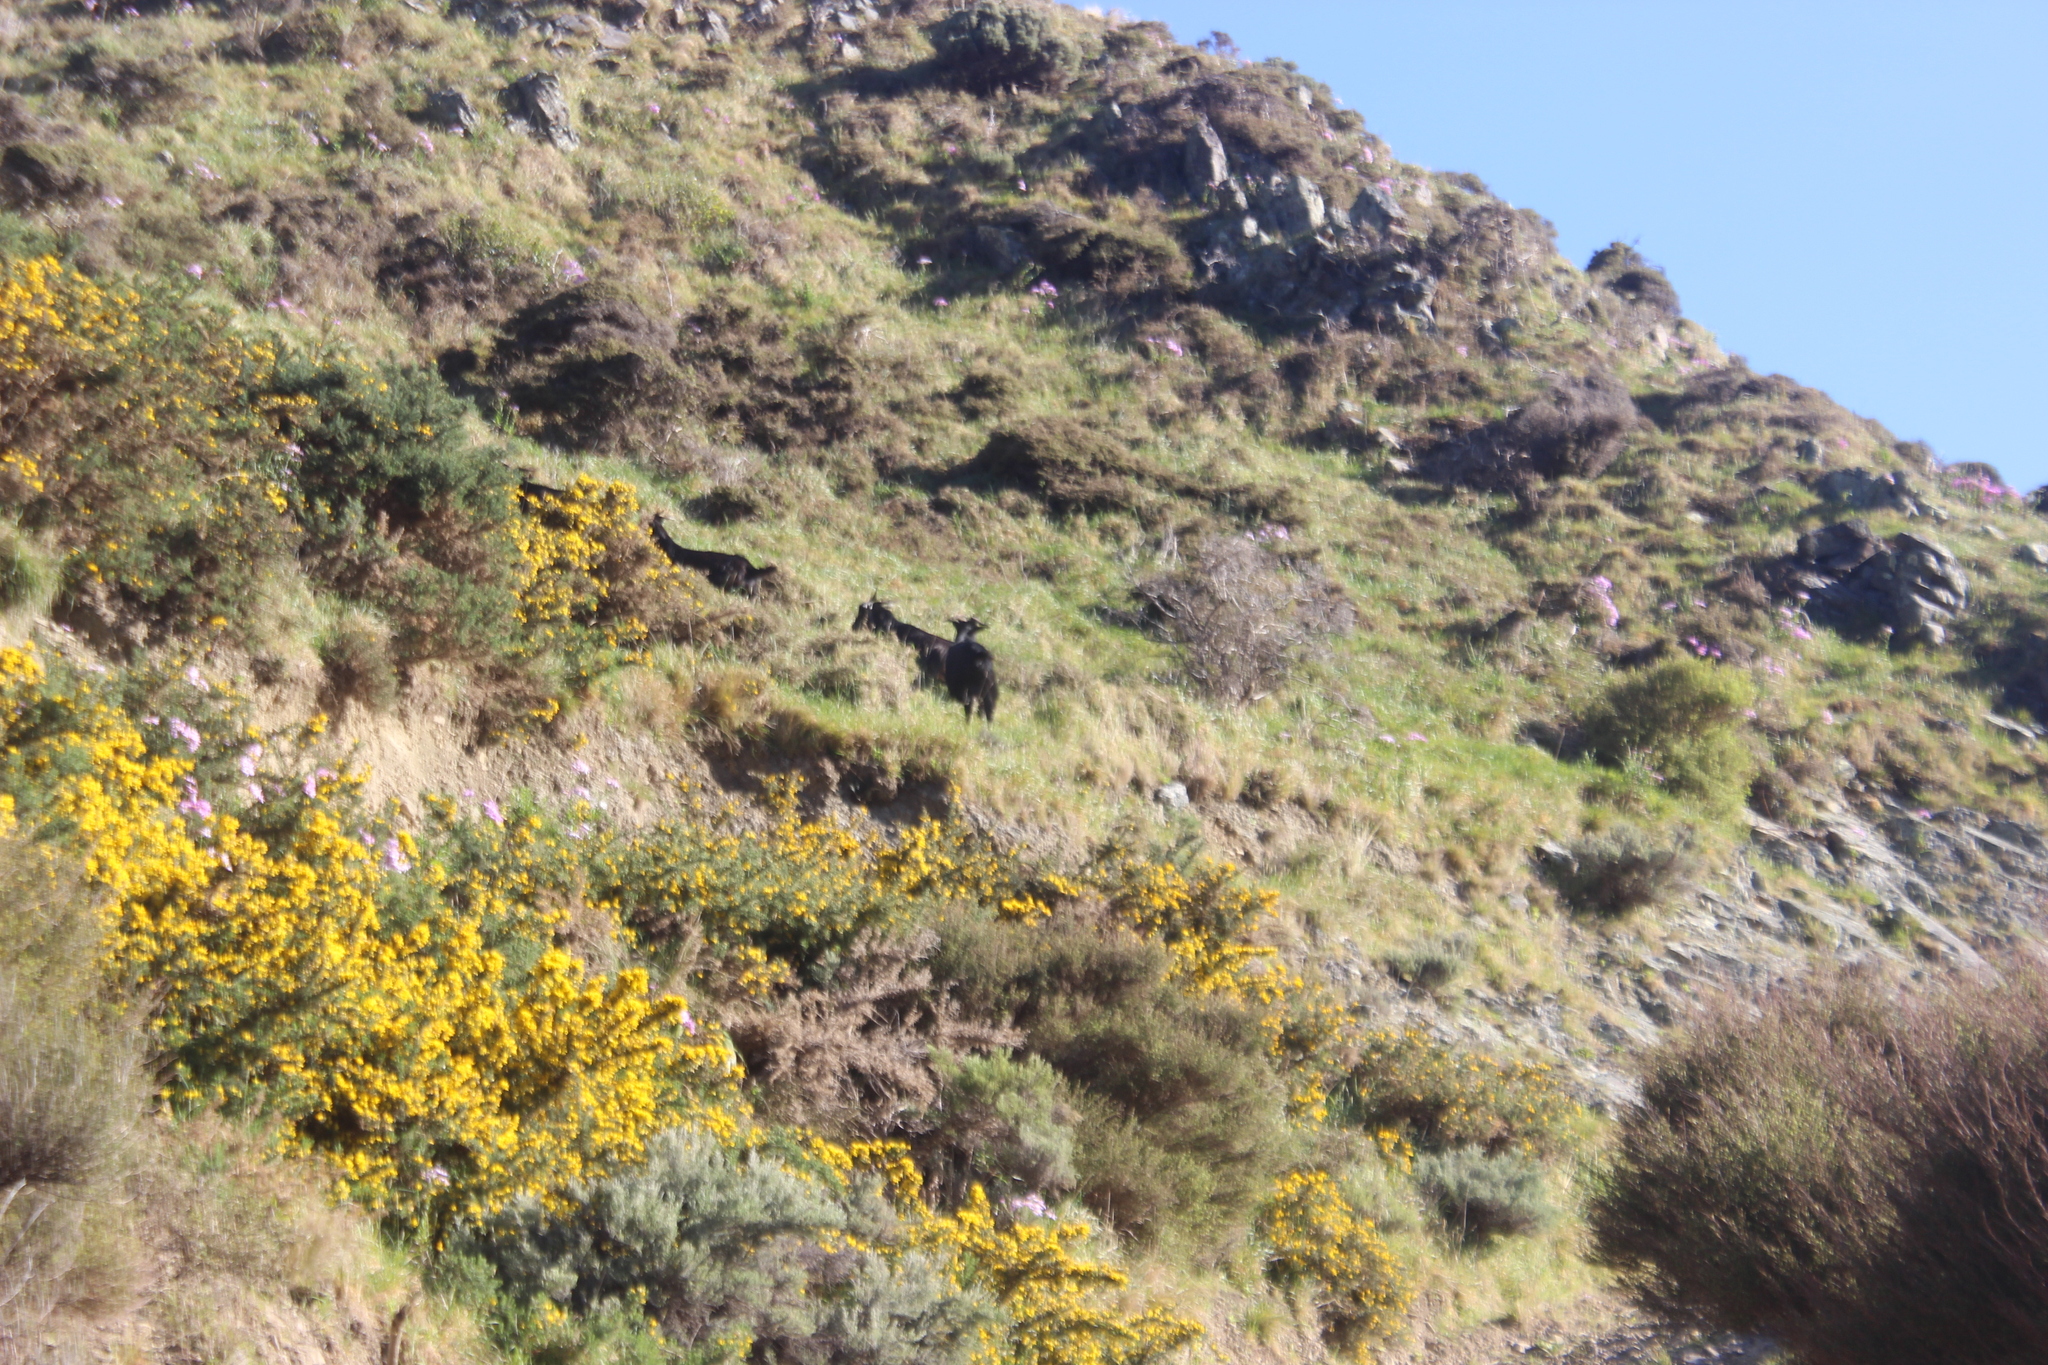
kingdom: Animalia
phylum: Chordata
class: Mammalia
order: Artiodactyla
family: Bovidae
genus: Capra
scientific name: Capra hircus
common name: Domestic goat
